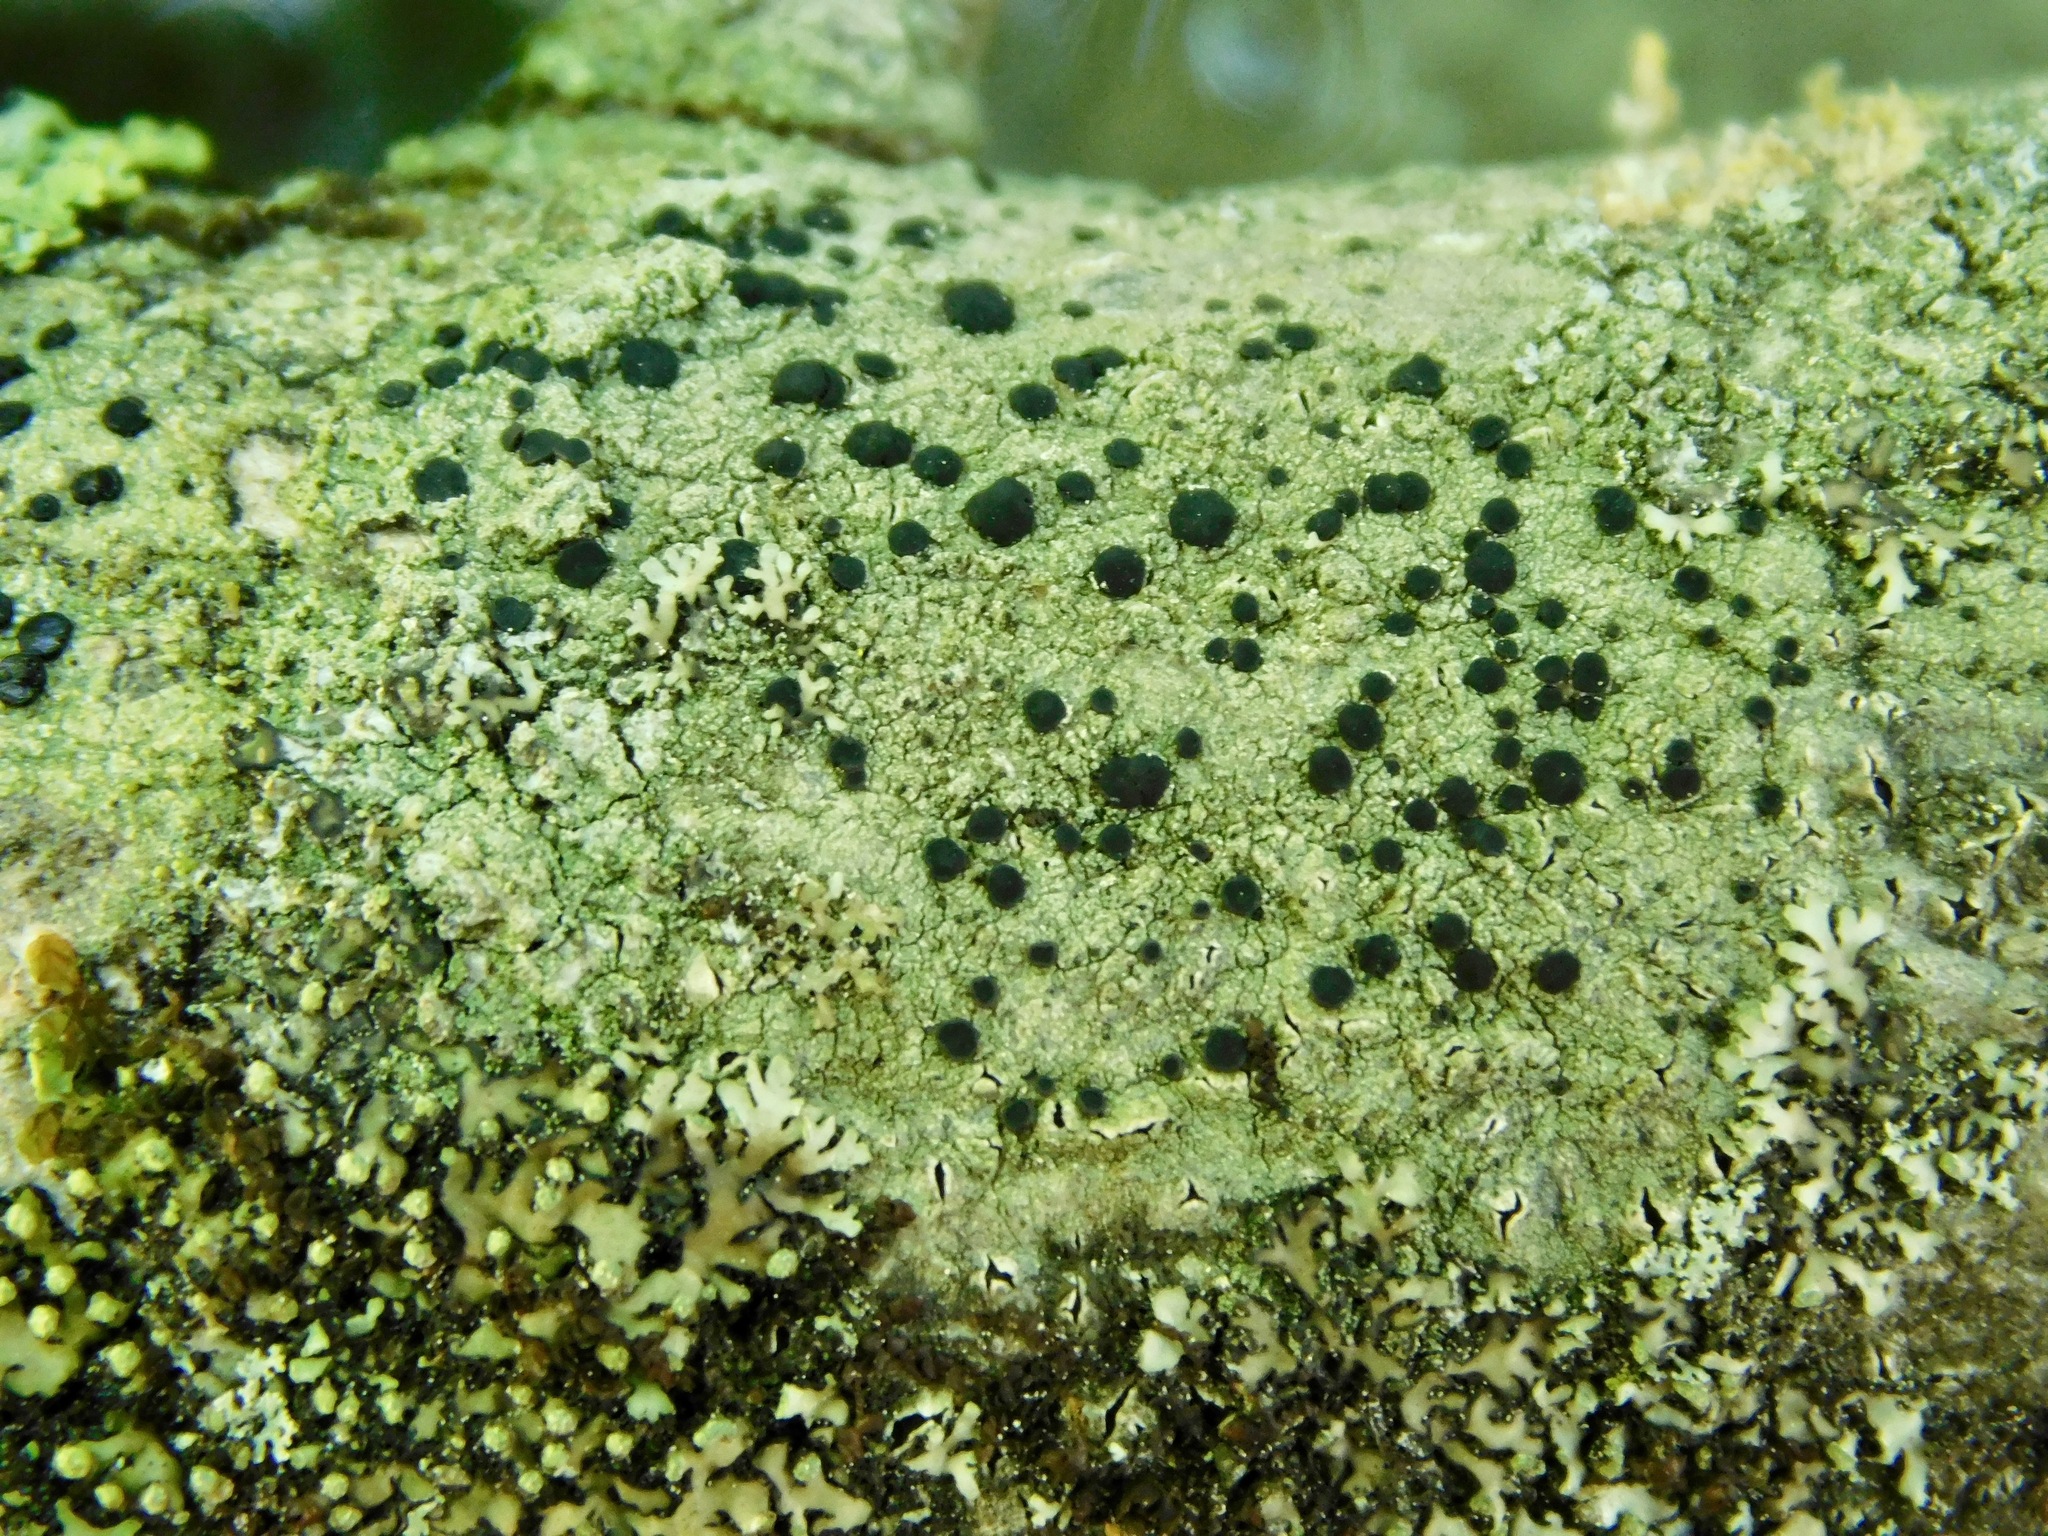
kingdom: Fungi
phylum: Ascomycota
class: Lecanoromycetes
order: Schaereriales
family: Schaereriaceae
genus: Ropalospora
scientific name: Ropalospora chlorantha
